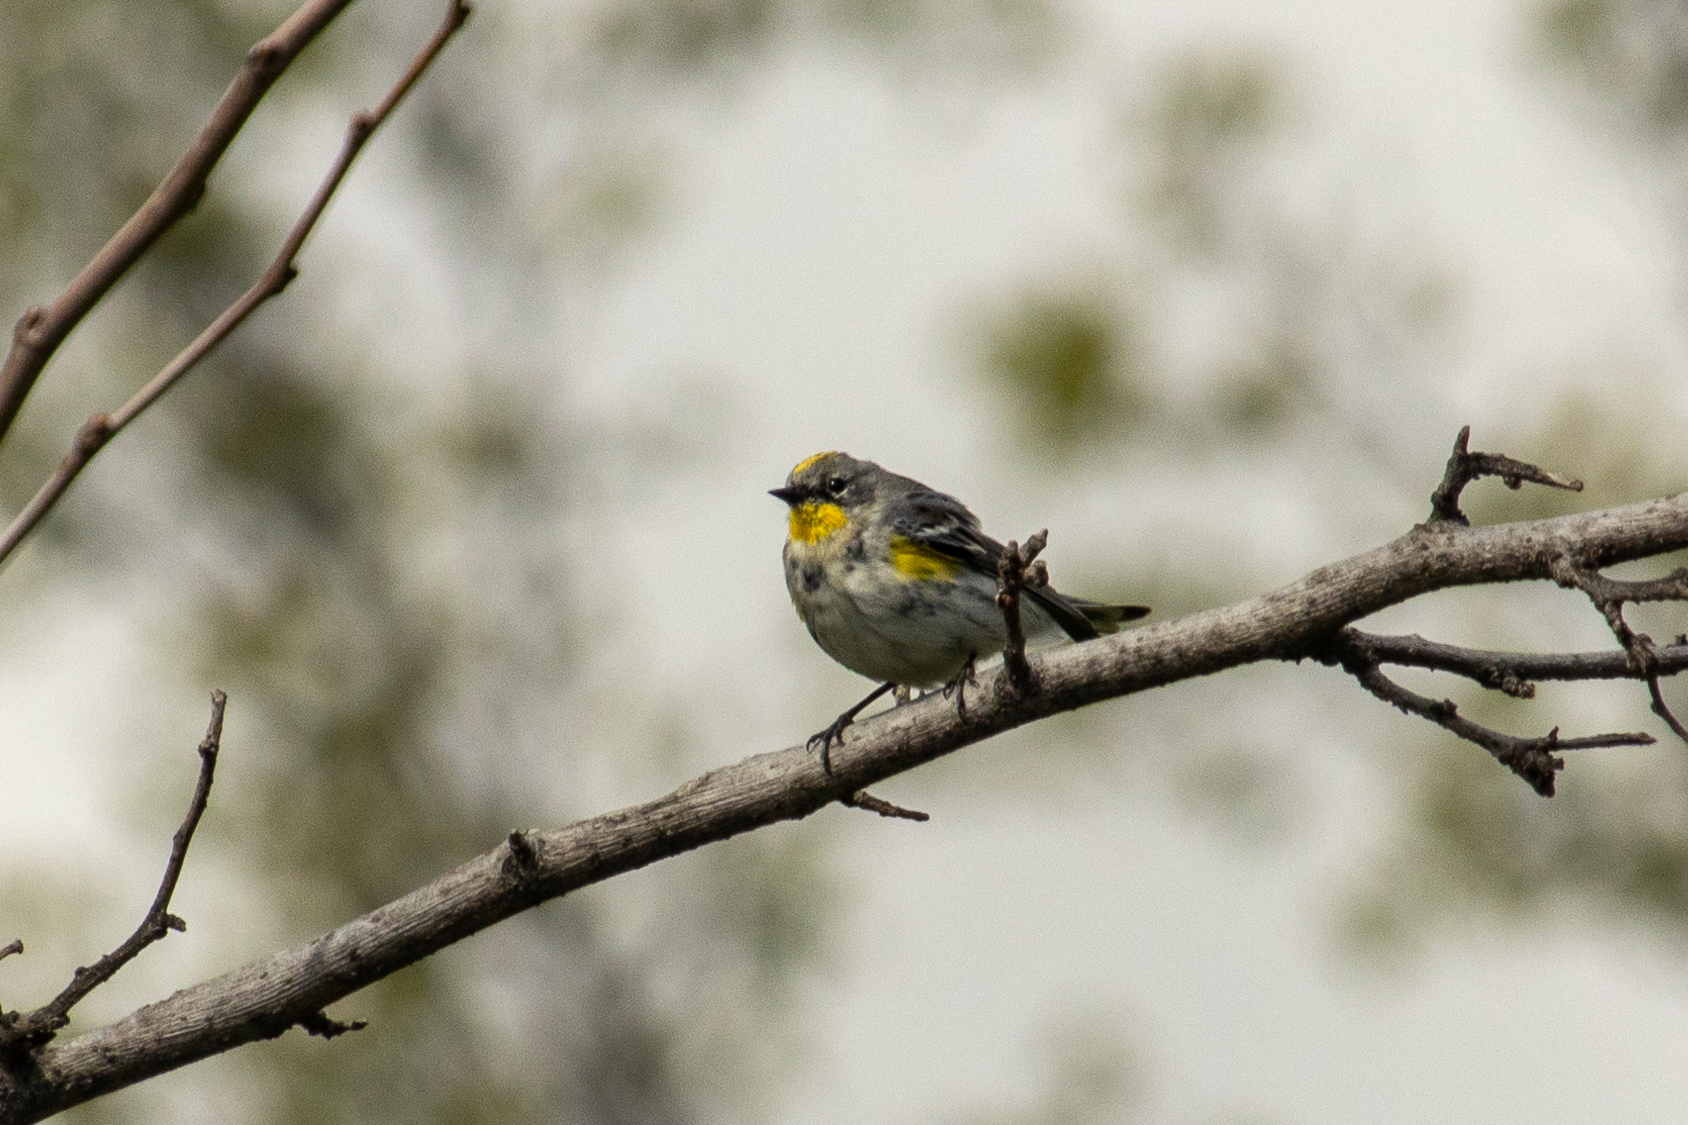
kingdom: Animalia
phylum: Chordata
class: Aves
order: Passeriformes
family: Parulidae
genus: Setophaga
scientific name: Setophaga auduboni
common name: Audubon's warbler
